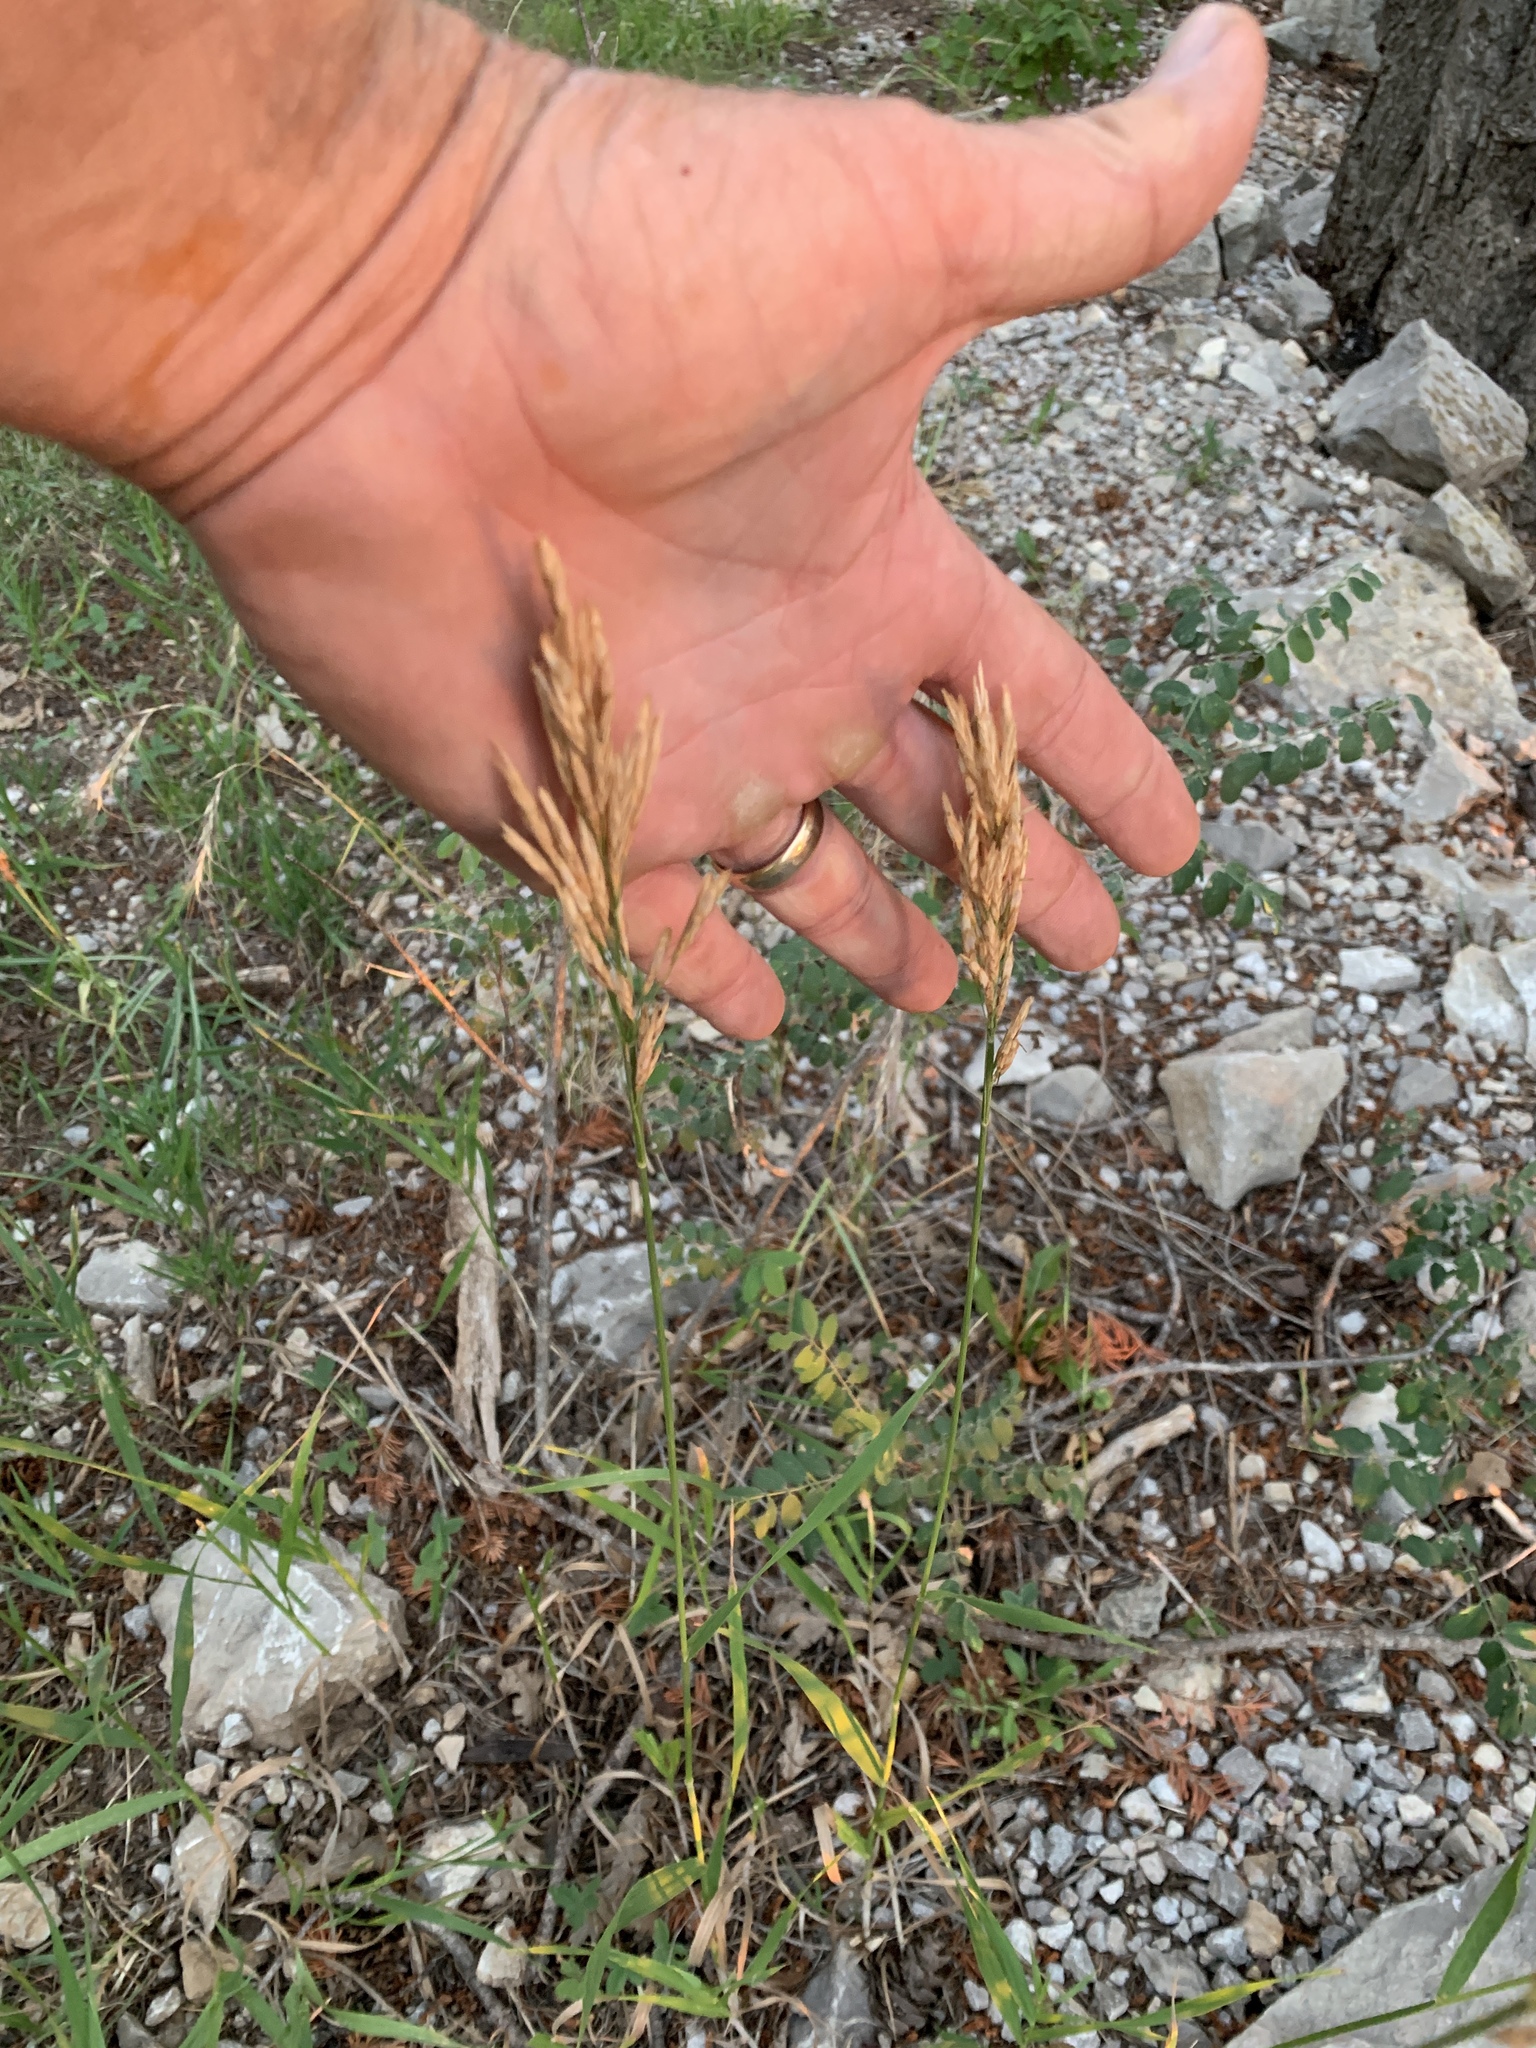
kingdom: Plantae
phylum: Tracheophyta
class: Liliopsida
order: Poales
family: Poaceae
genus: Bromus
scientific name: Bromus inermis
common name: Smooth brome
